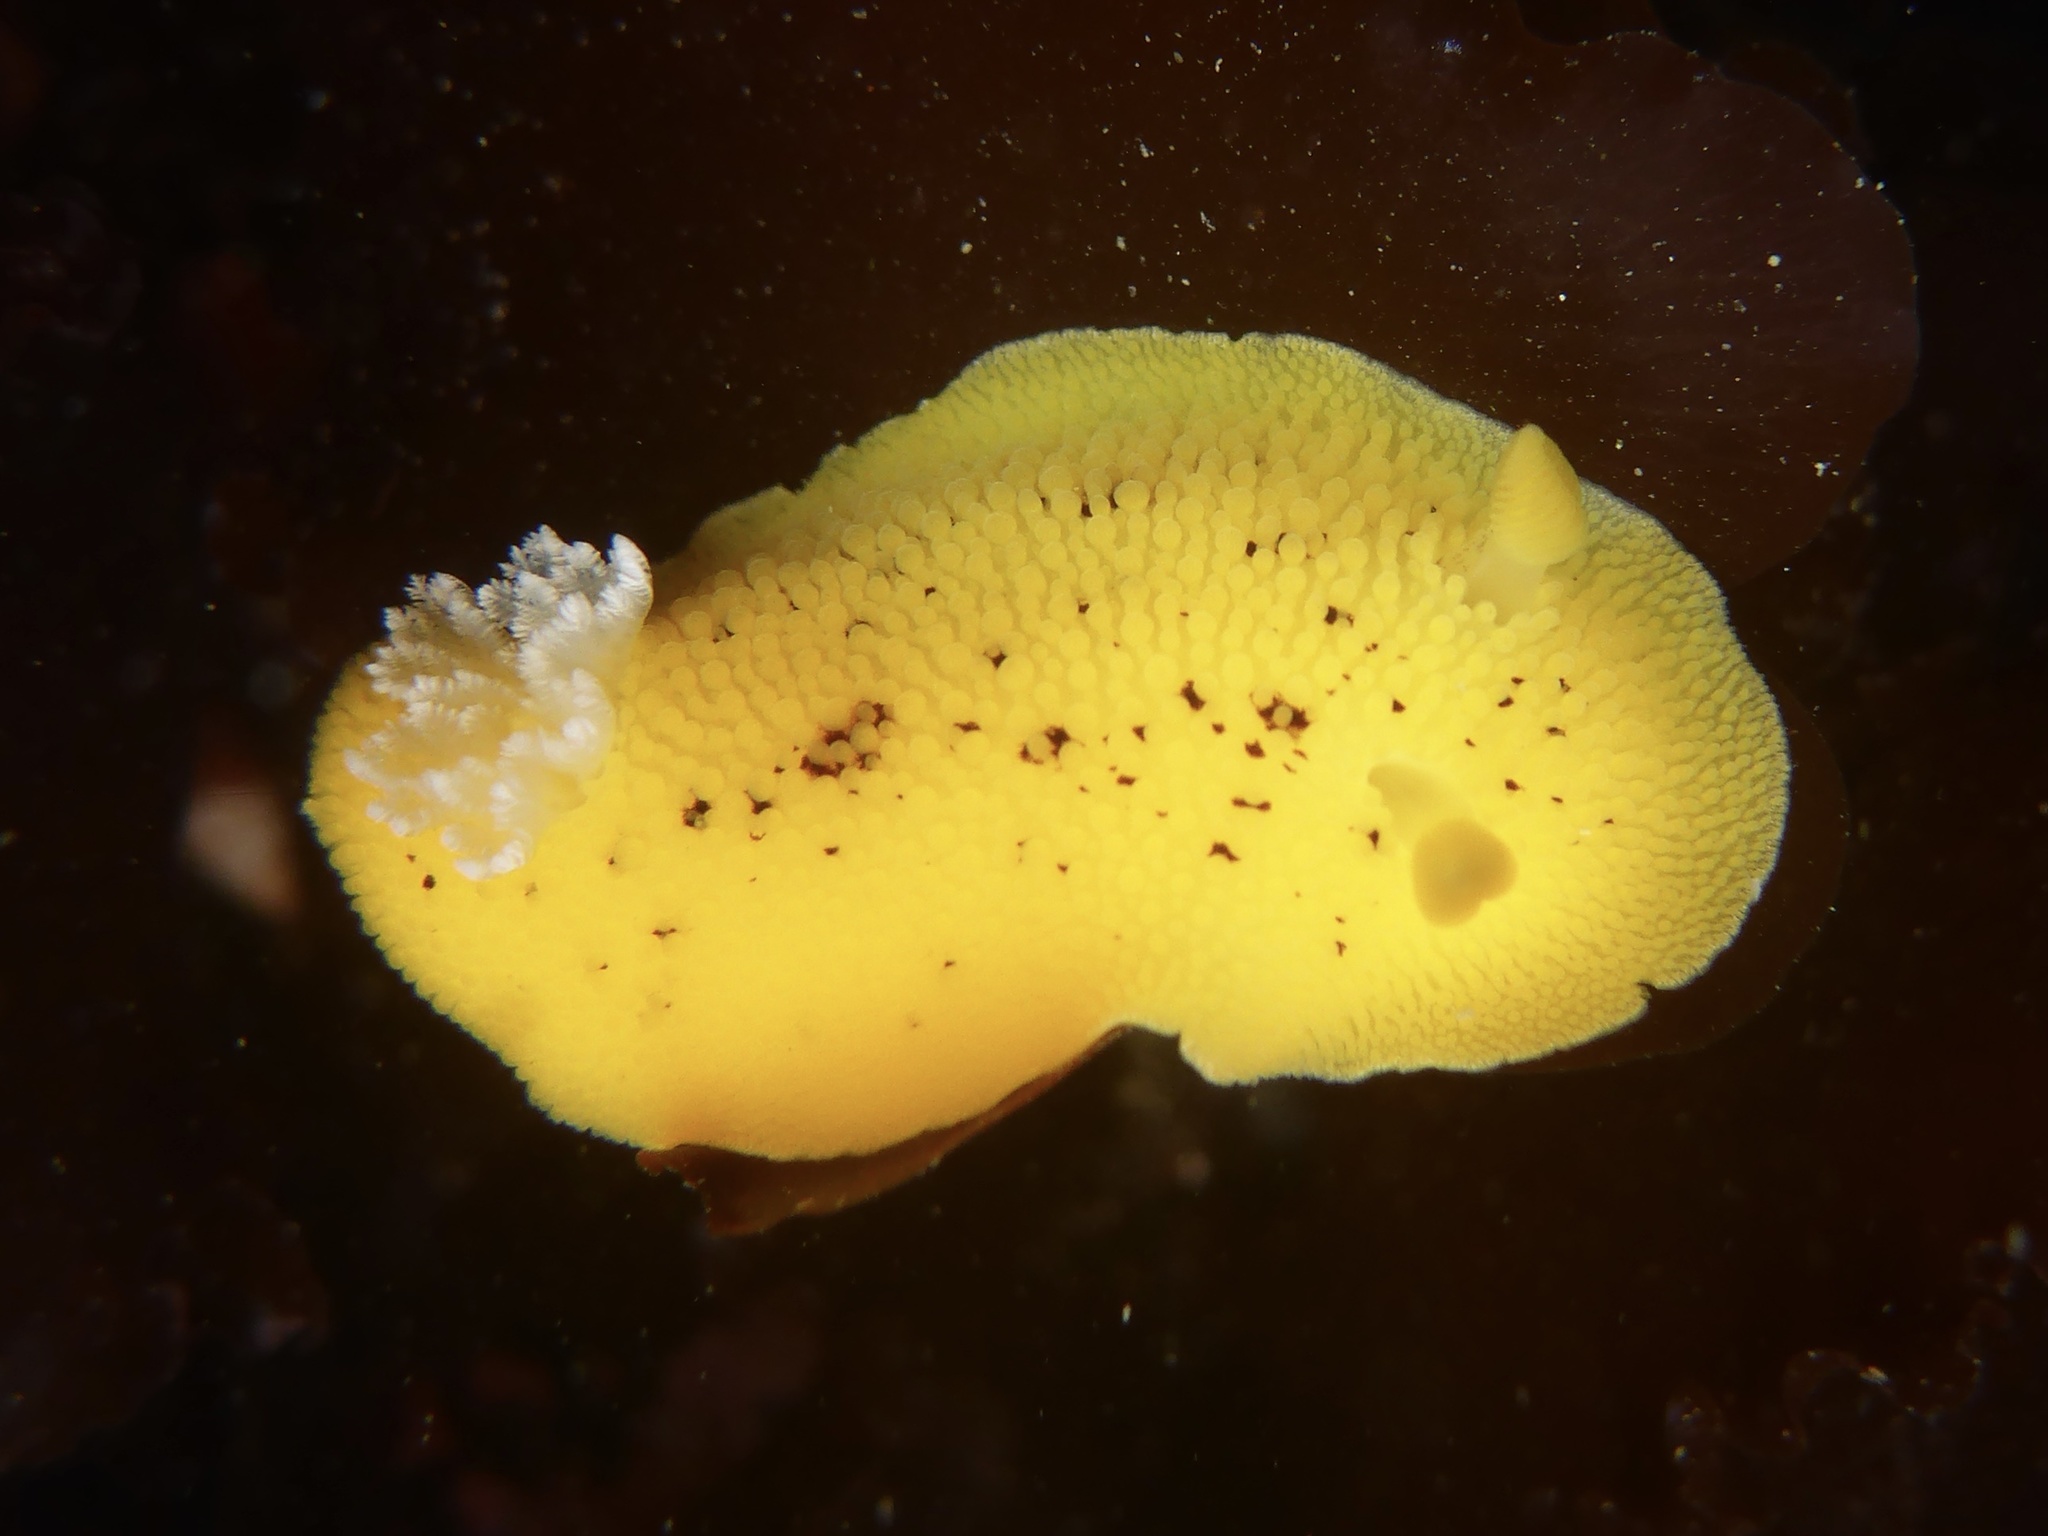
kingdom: Animalia
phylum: Mollusca
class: Gastropoda
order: Nudibranchia
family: Discodorididae
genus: Peltodoris
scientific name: Peltodoris nobilis
